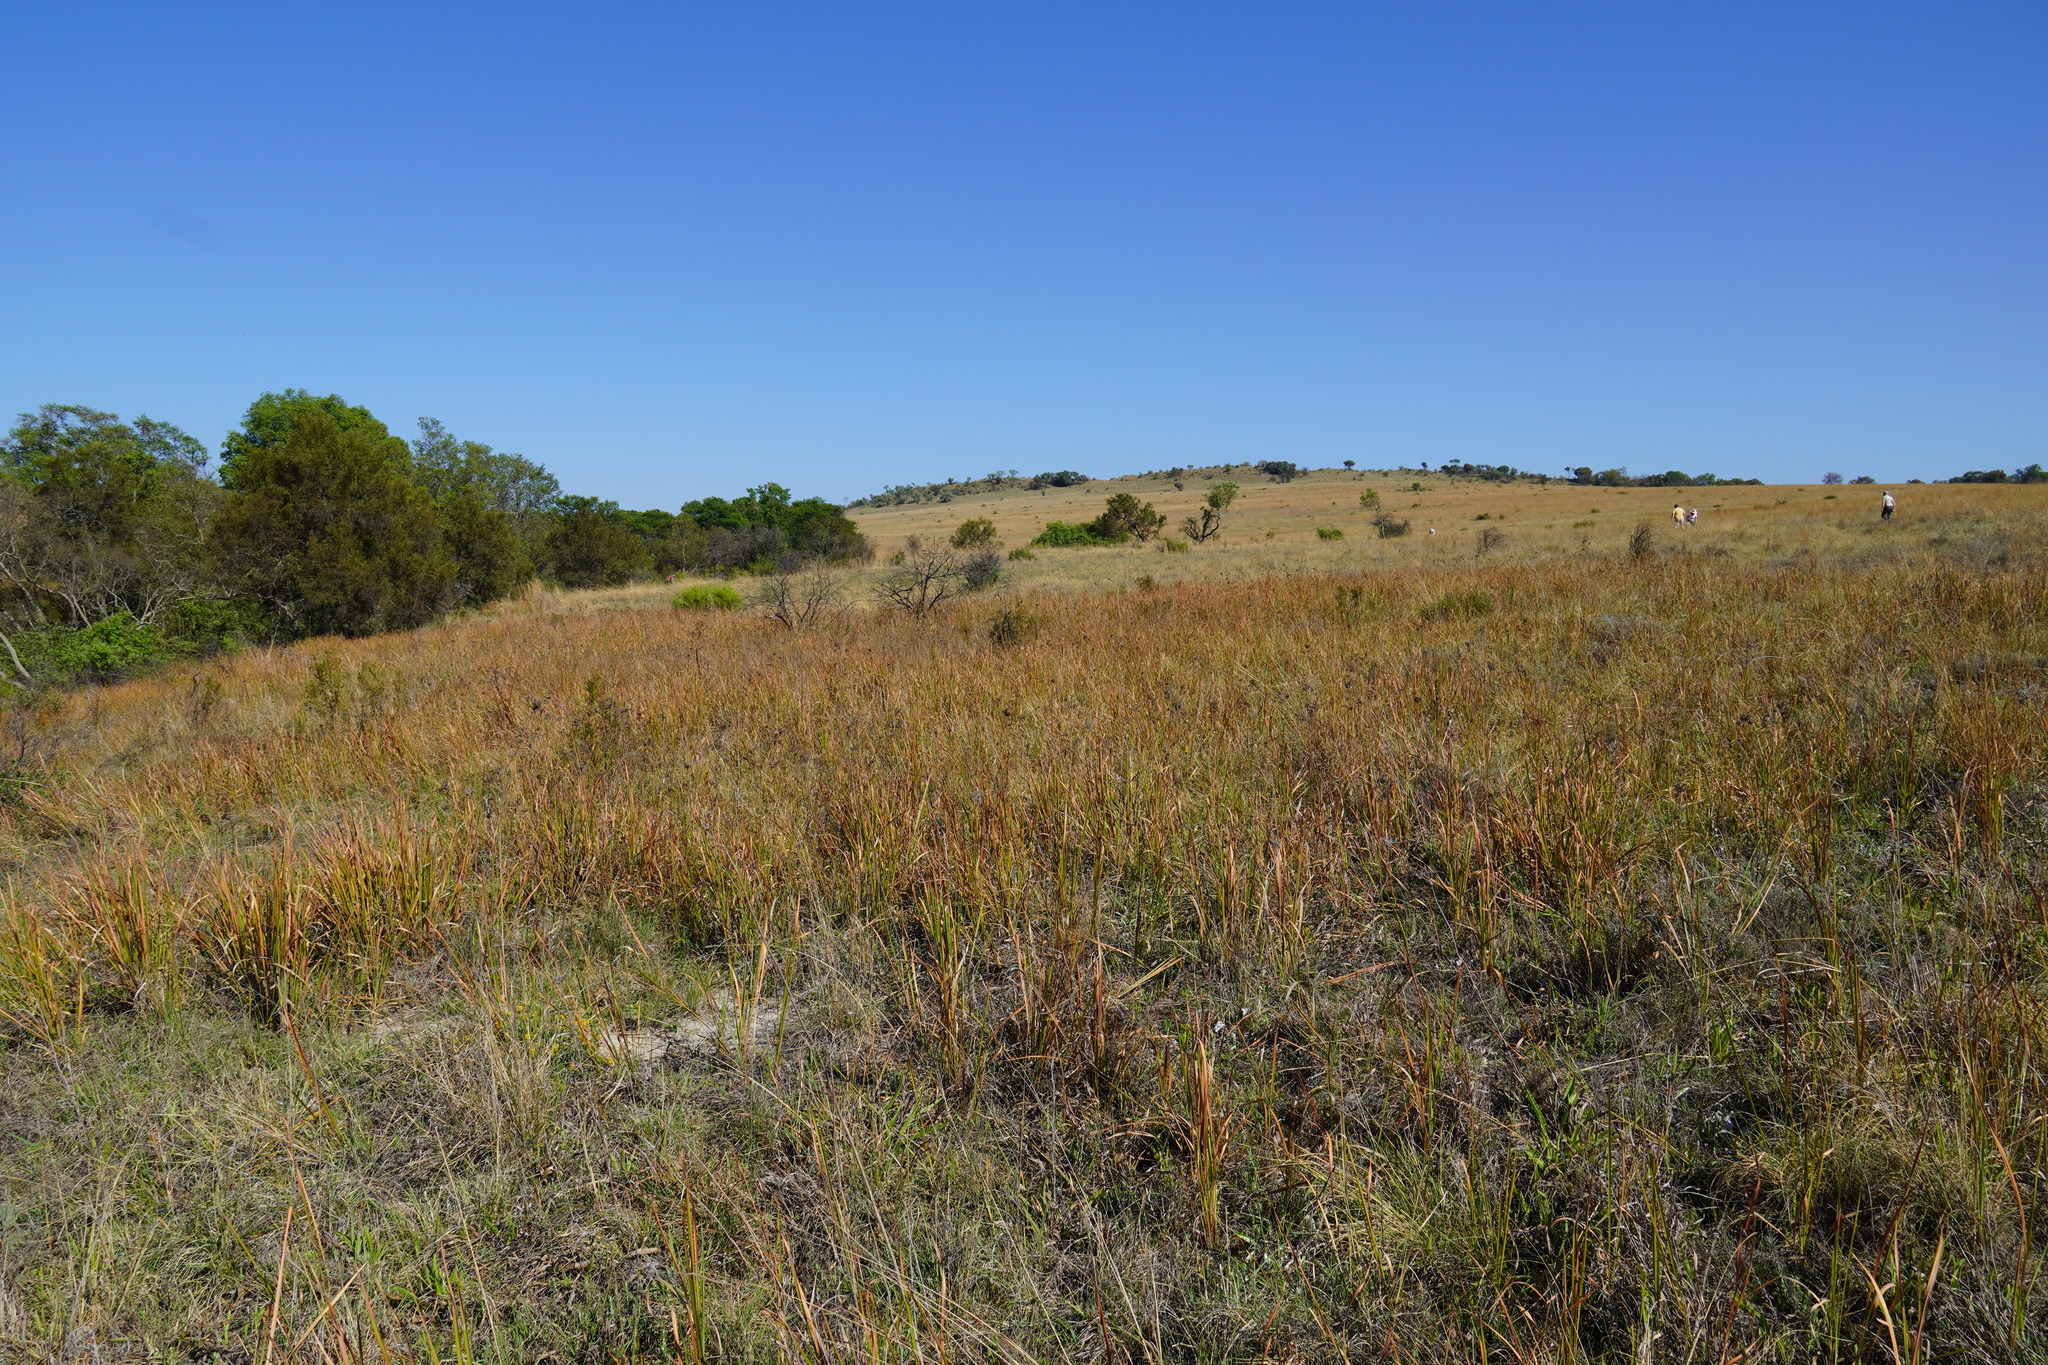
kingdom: Plantae
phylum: Tracheophyta
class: Liliopsida
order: Poales
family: Poaceae
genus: Imperata
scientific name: Imperata cylindrica
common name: Cogongrass
